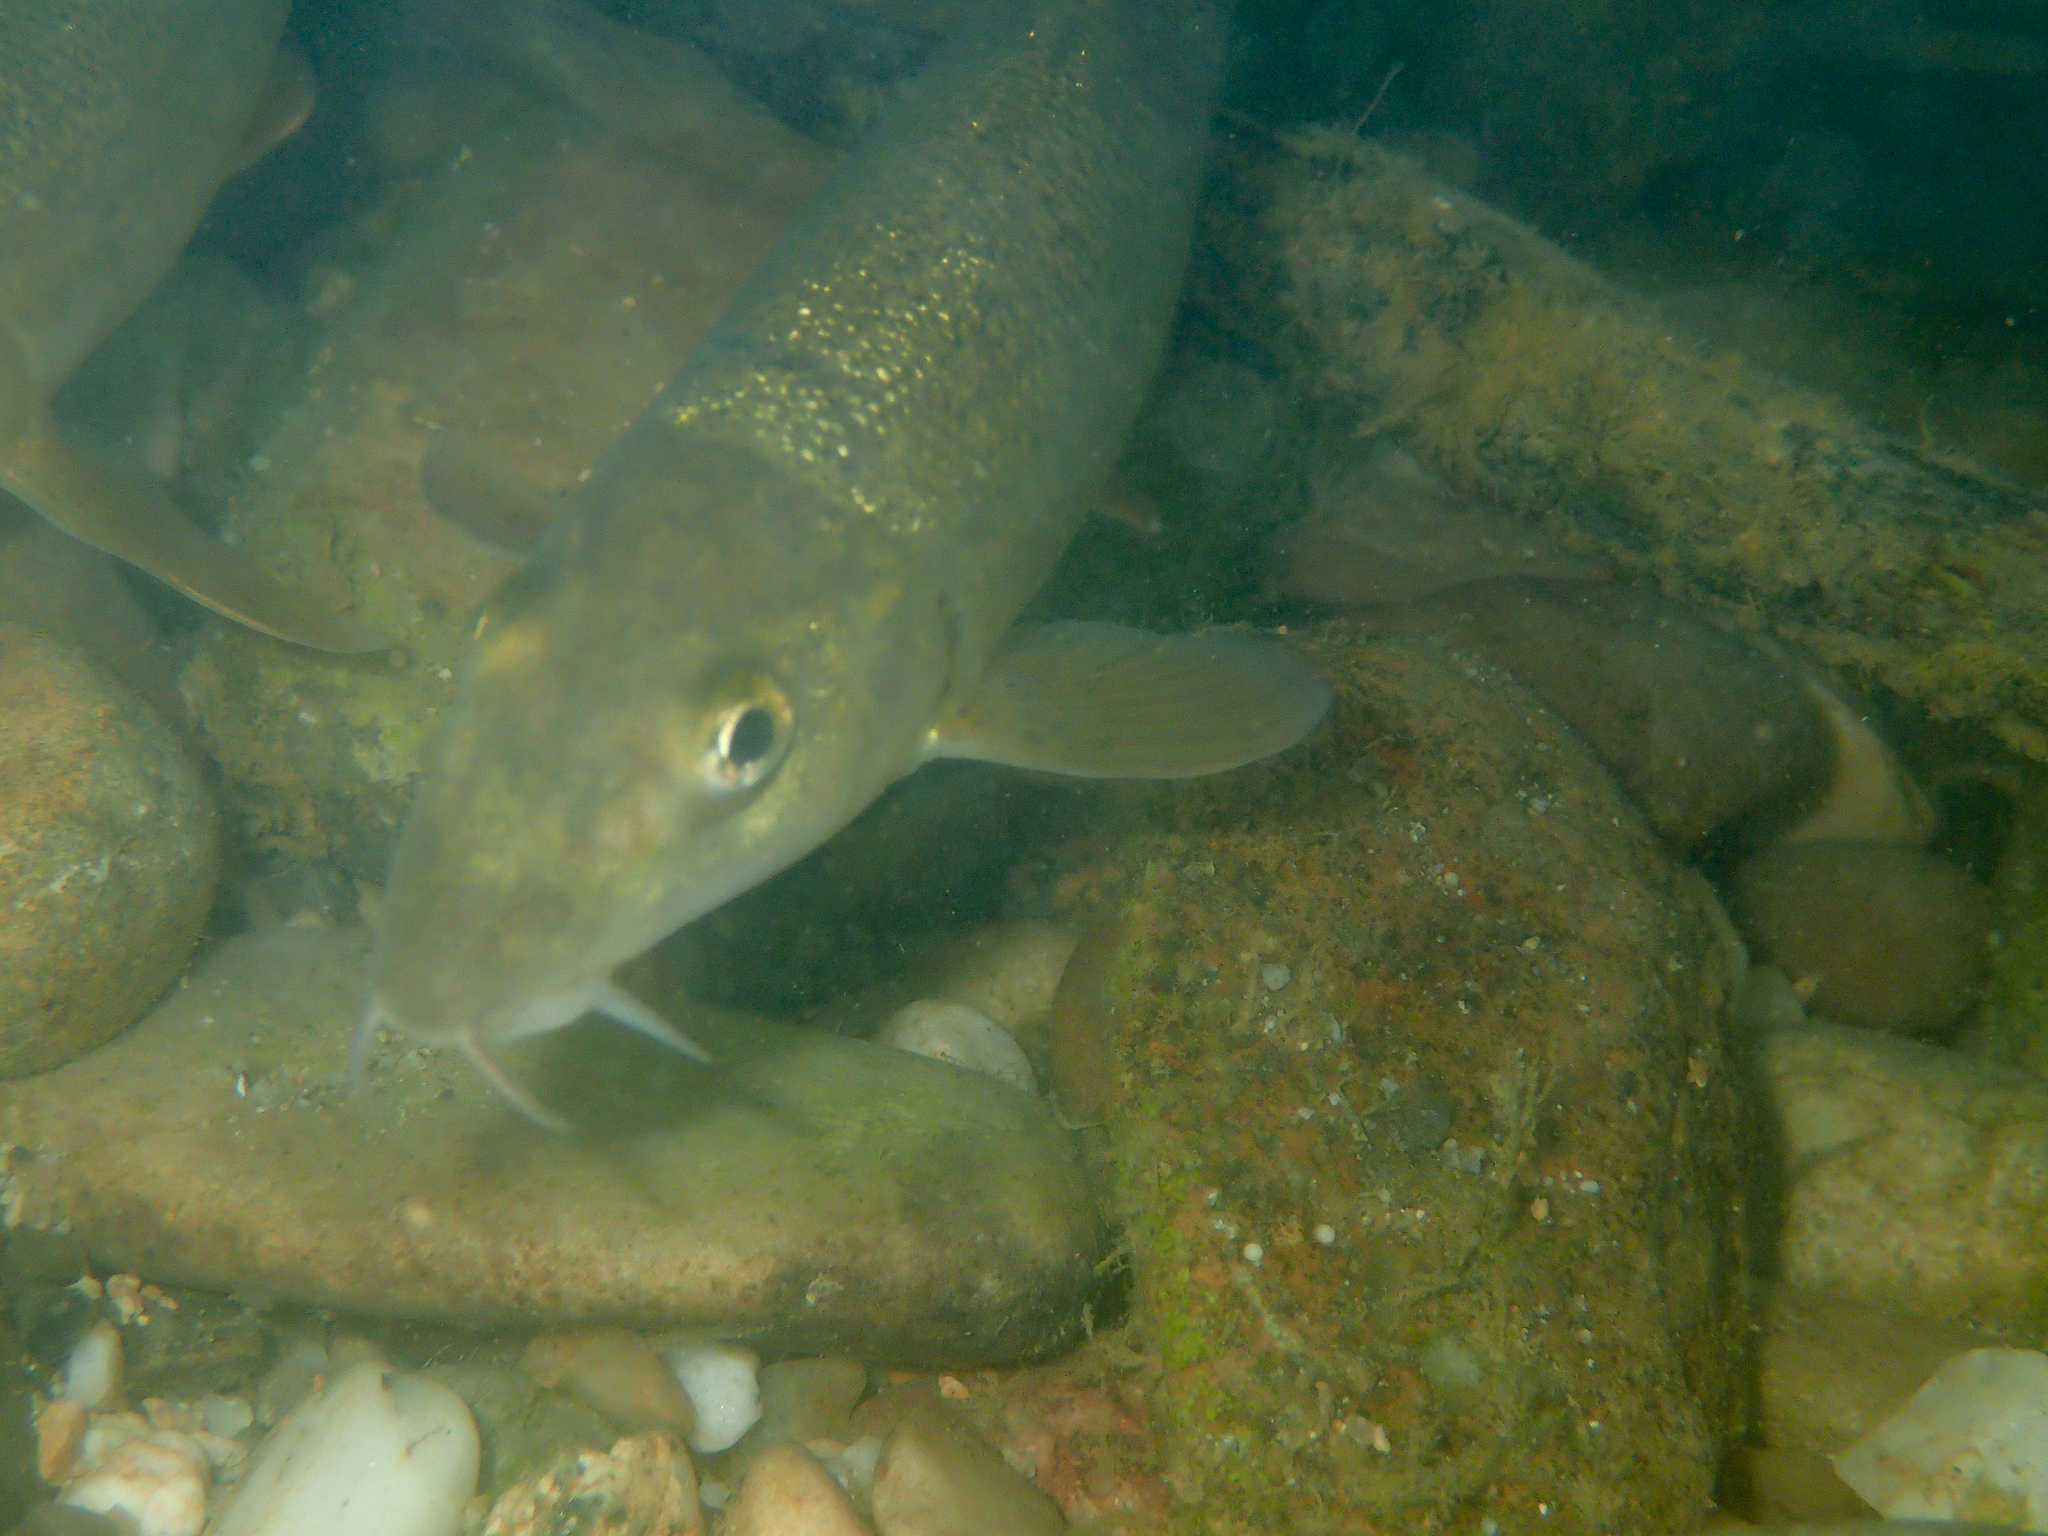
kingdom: Animalia
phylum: Chordata
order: Cypriniformes
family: Cyprinidae
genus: Barbus
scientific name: Barbus barbus
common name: Barbel
